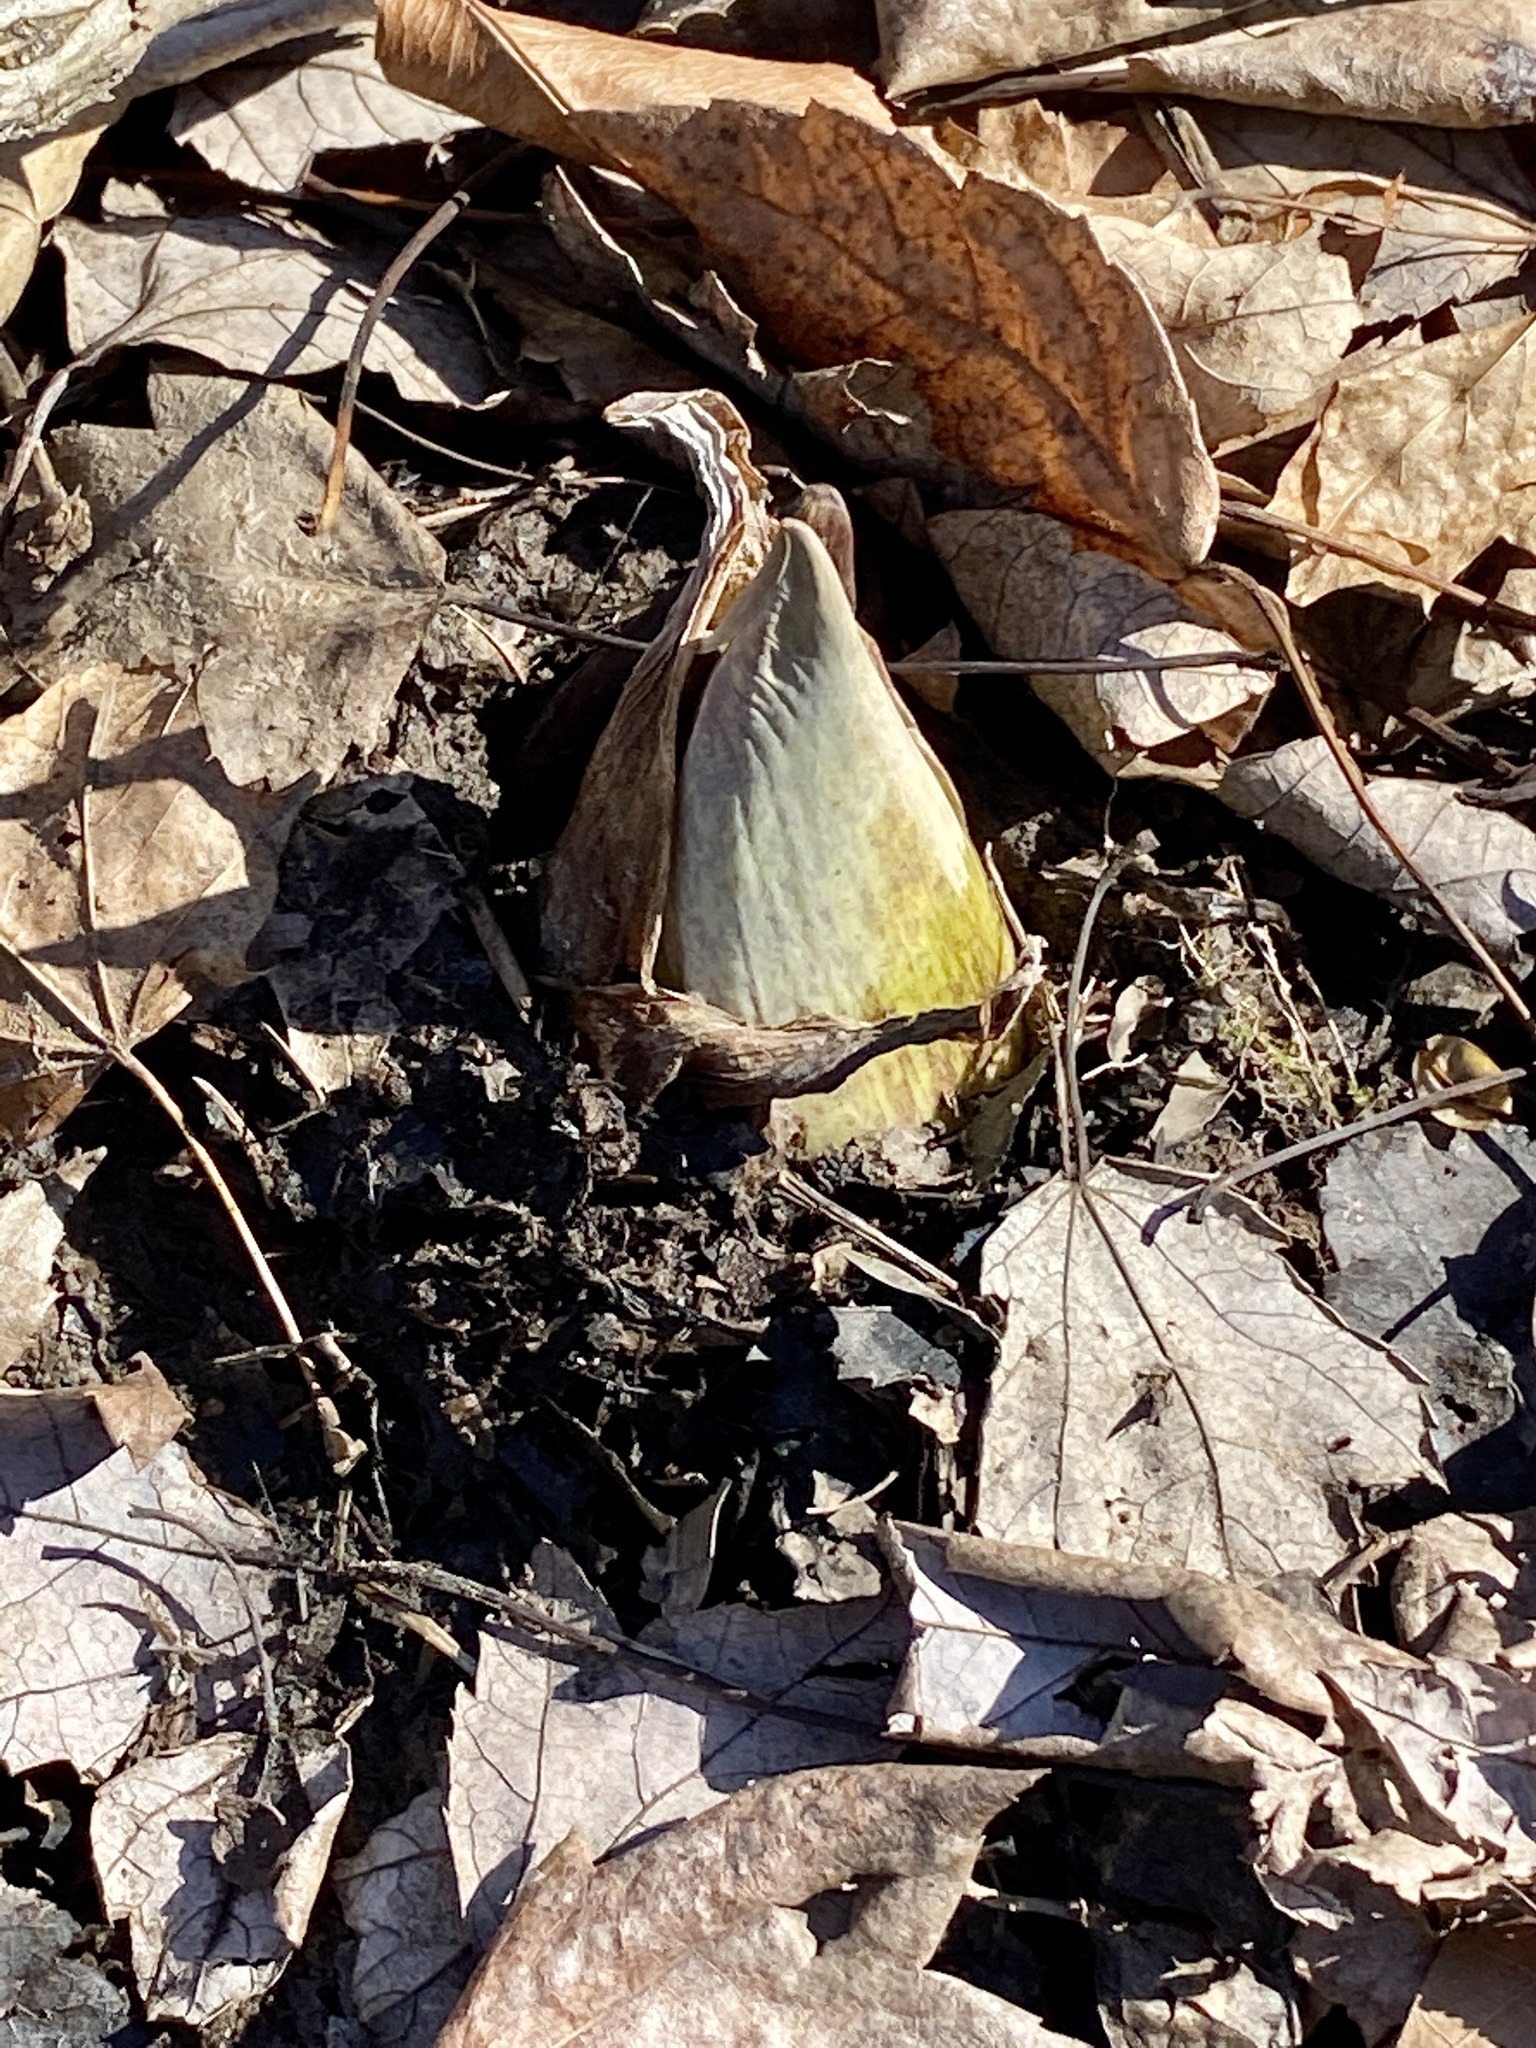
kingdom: Plantae
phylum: Tracheophyta
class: Liliopsida
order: Alismatales
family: Araceae
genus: Symplocarpus
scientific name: Symplocarpus foetidus
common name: Eastern skunk cabbage
